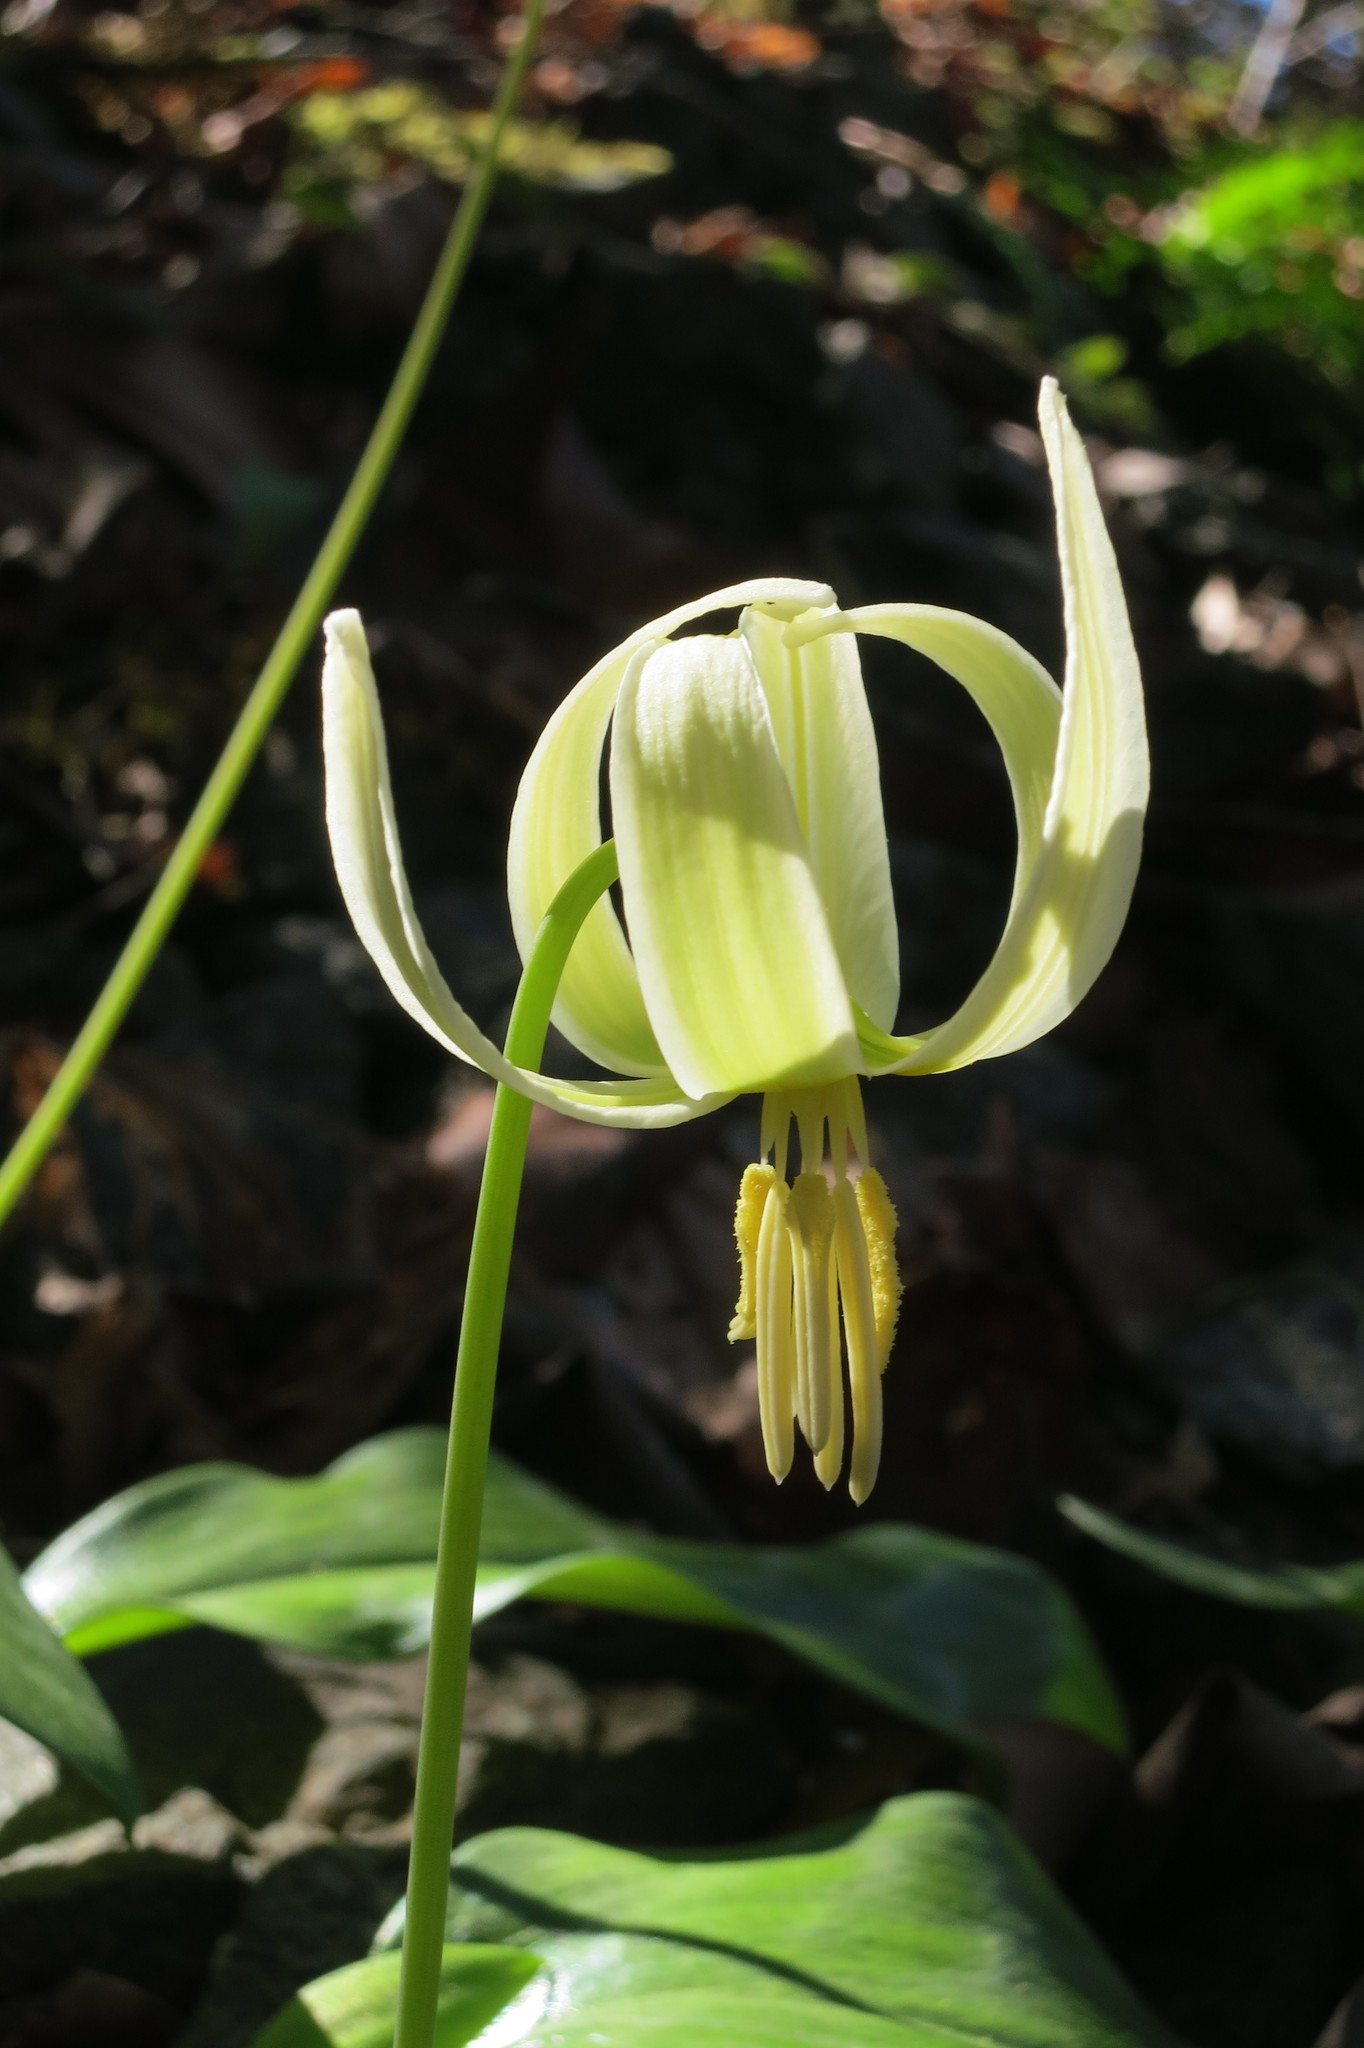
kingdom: Plantae
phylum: Tracheophyta
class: Liliopsida
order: Liliales
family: Liliaceae
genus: Erythronium
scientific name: Erythronium oregonum
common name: Giant adder's-tongue
